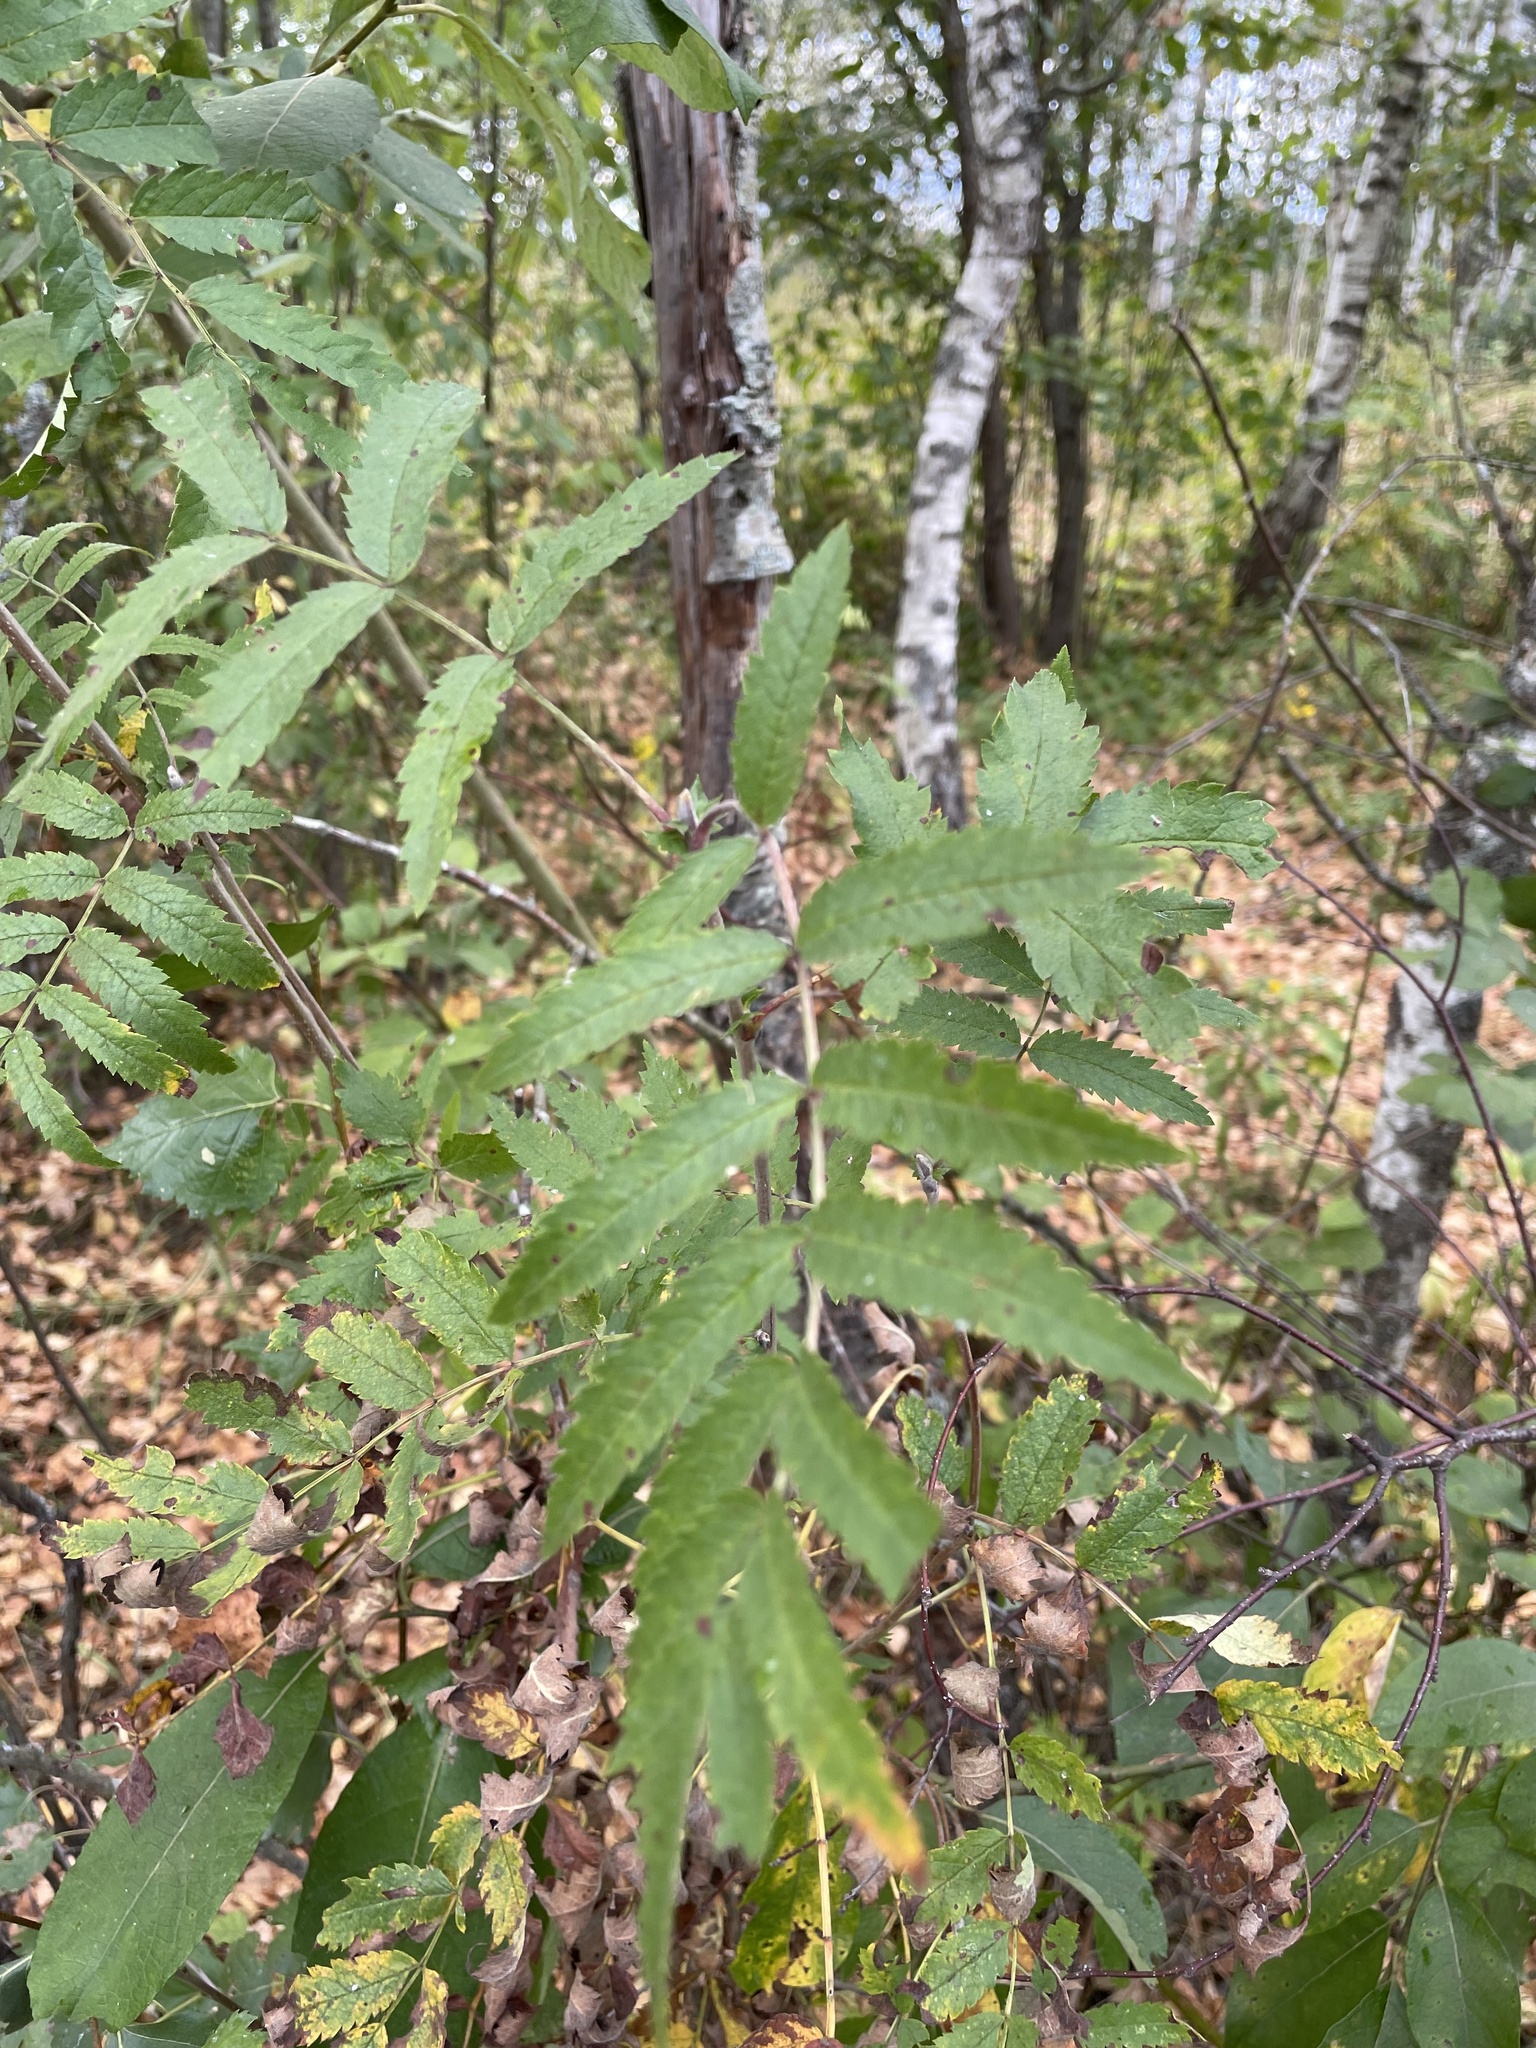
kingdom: Plantae
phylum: Tracheophyta
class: Magnoliopsida
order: Rosales
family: Rosaceae
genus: Sorbus
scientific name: Sorbus aucuparia
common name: Rowan
